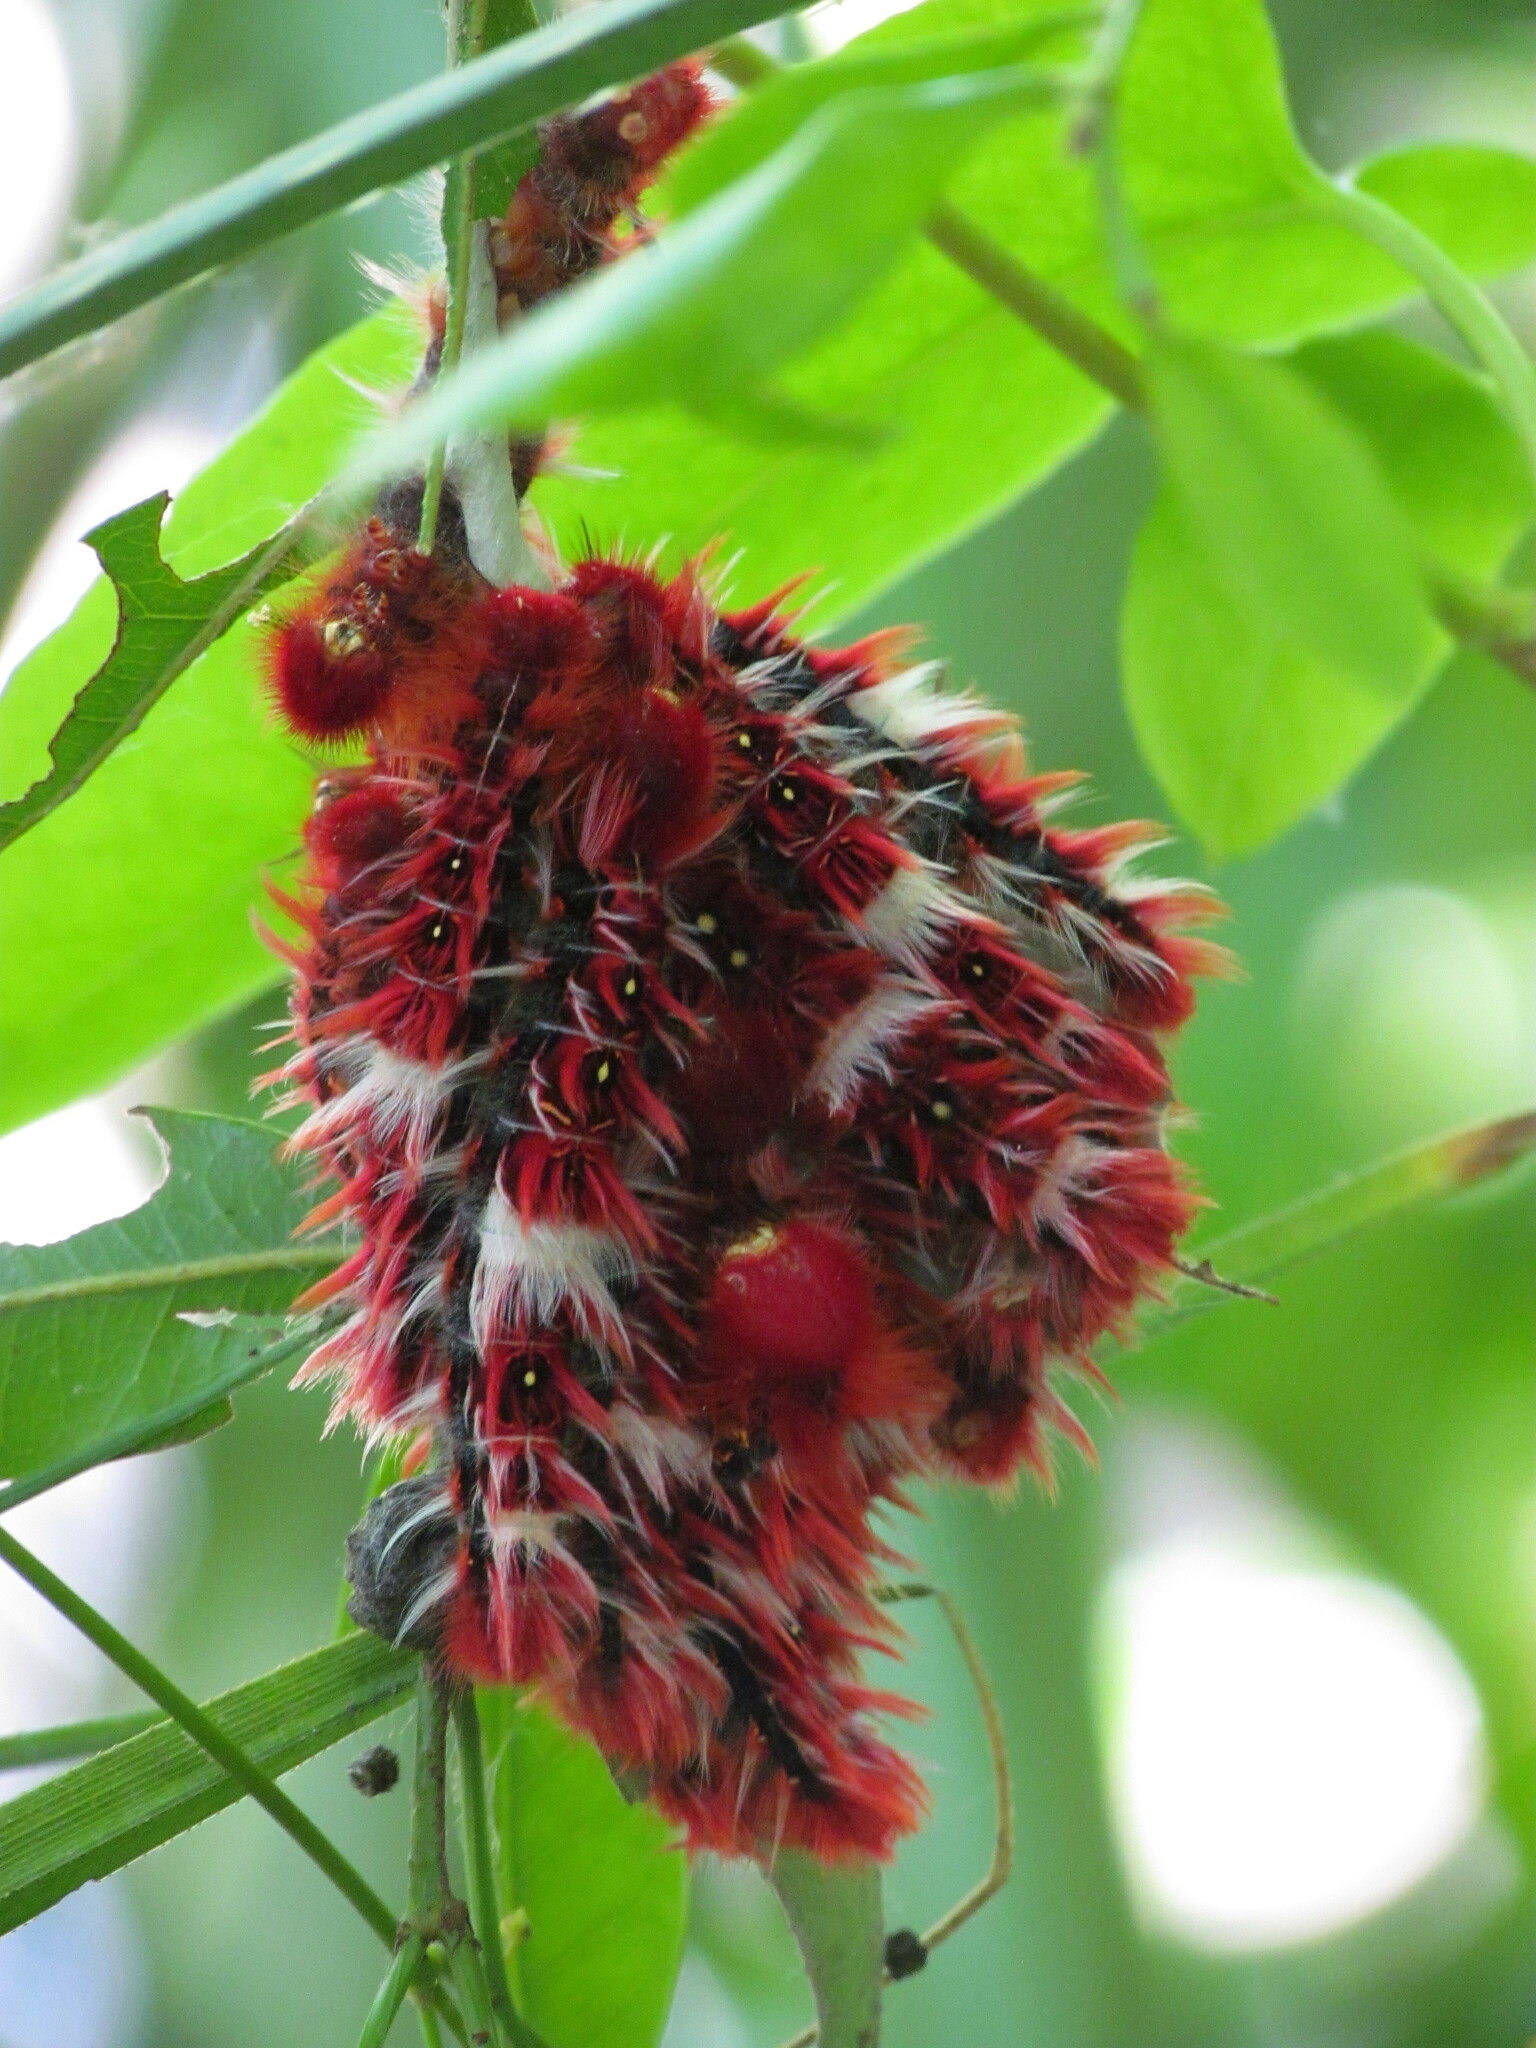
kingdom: Animalia
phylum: Arthropoda
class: Insecta
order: Lepidoptera
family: Nymphalidae
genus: Morpho
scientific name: Morpho epistrophus
